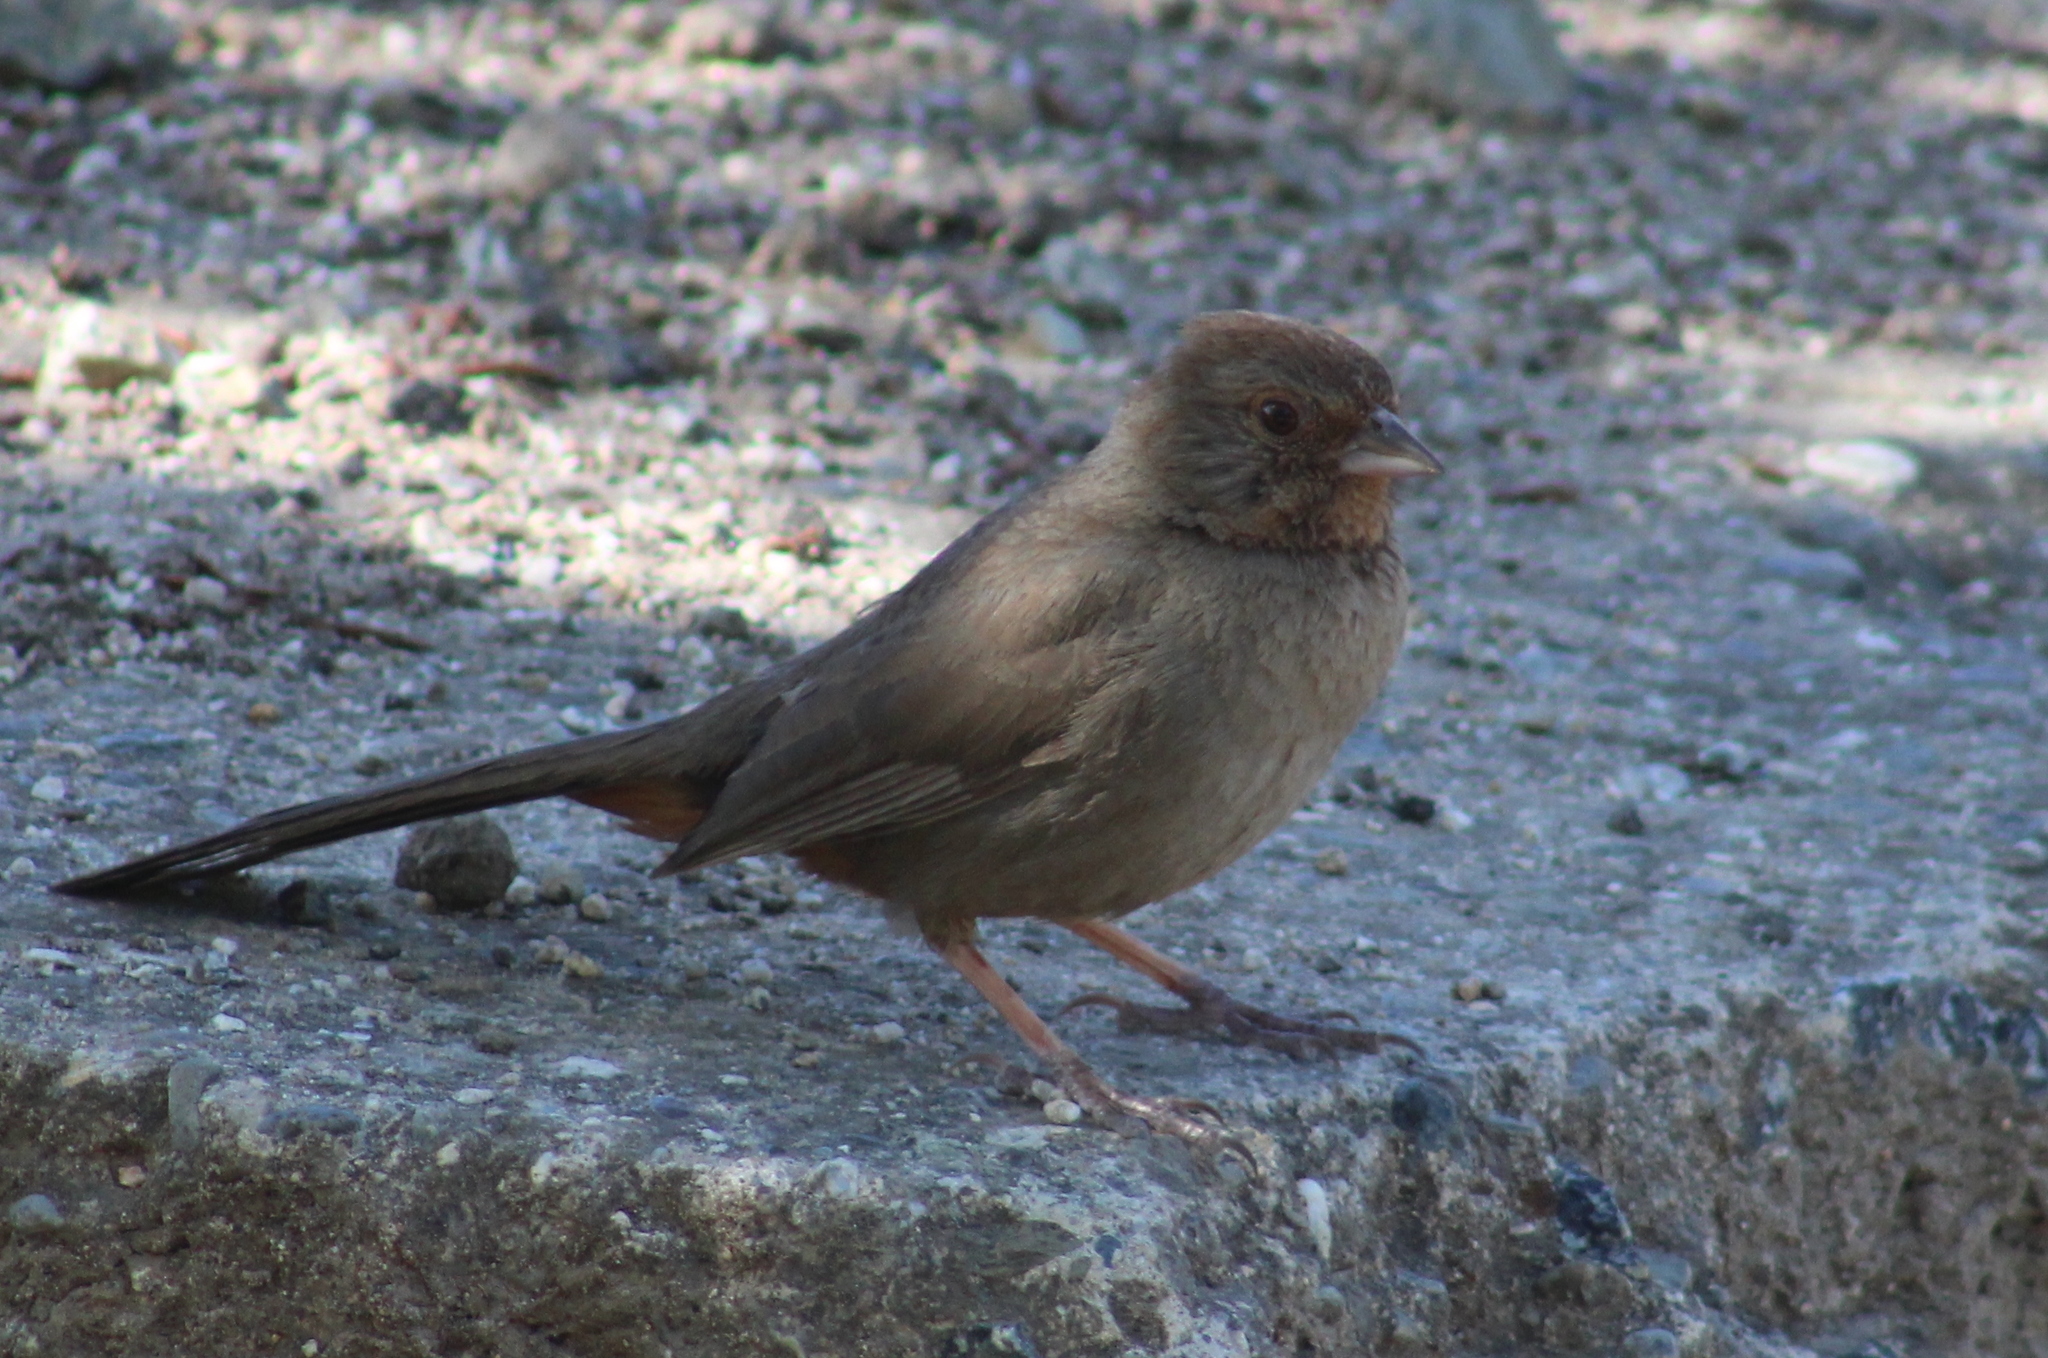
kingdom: Animalia
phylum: Chordata
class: Aves
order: Passeriformes
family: Passerellidae
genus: Melozone
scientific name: Melozone crissalis
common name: California towhee
